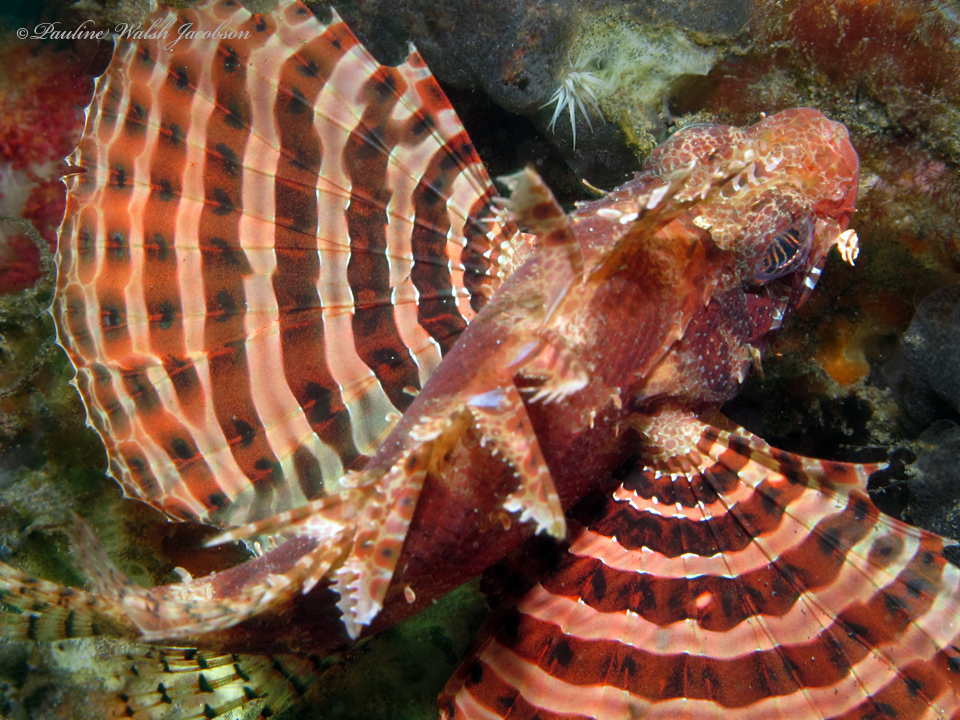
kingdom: Animalia
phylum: Chordata
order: Scorpaeniformes
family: Scorpaenidae
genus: Dendrochirus
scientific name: Dendrochirus brachypterus
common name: Shortfin turkeyfish
